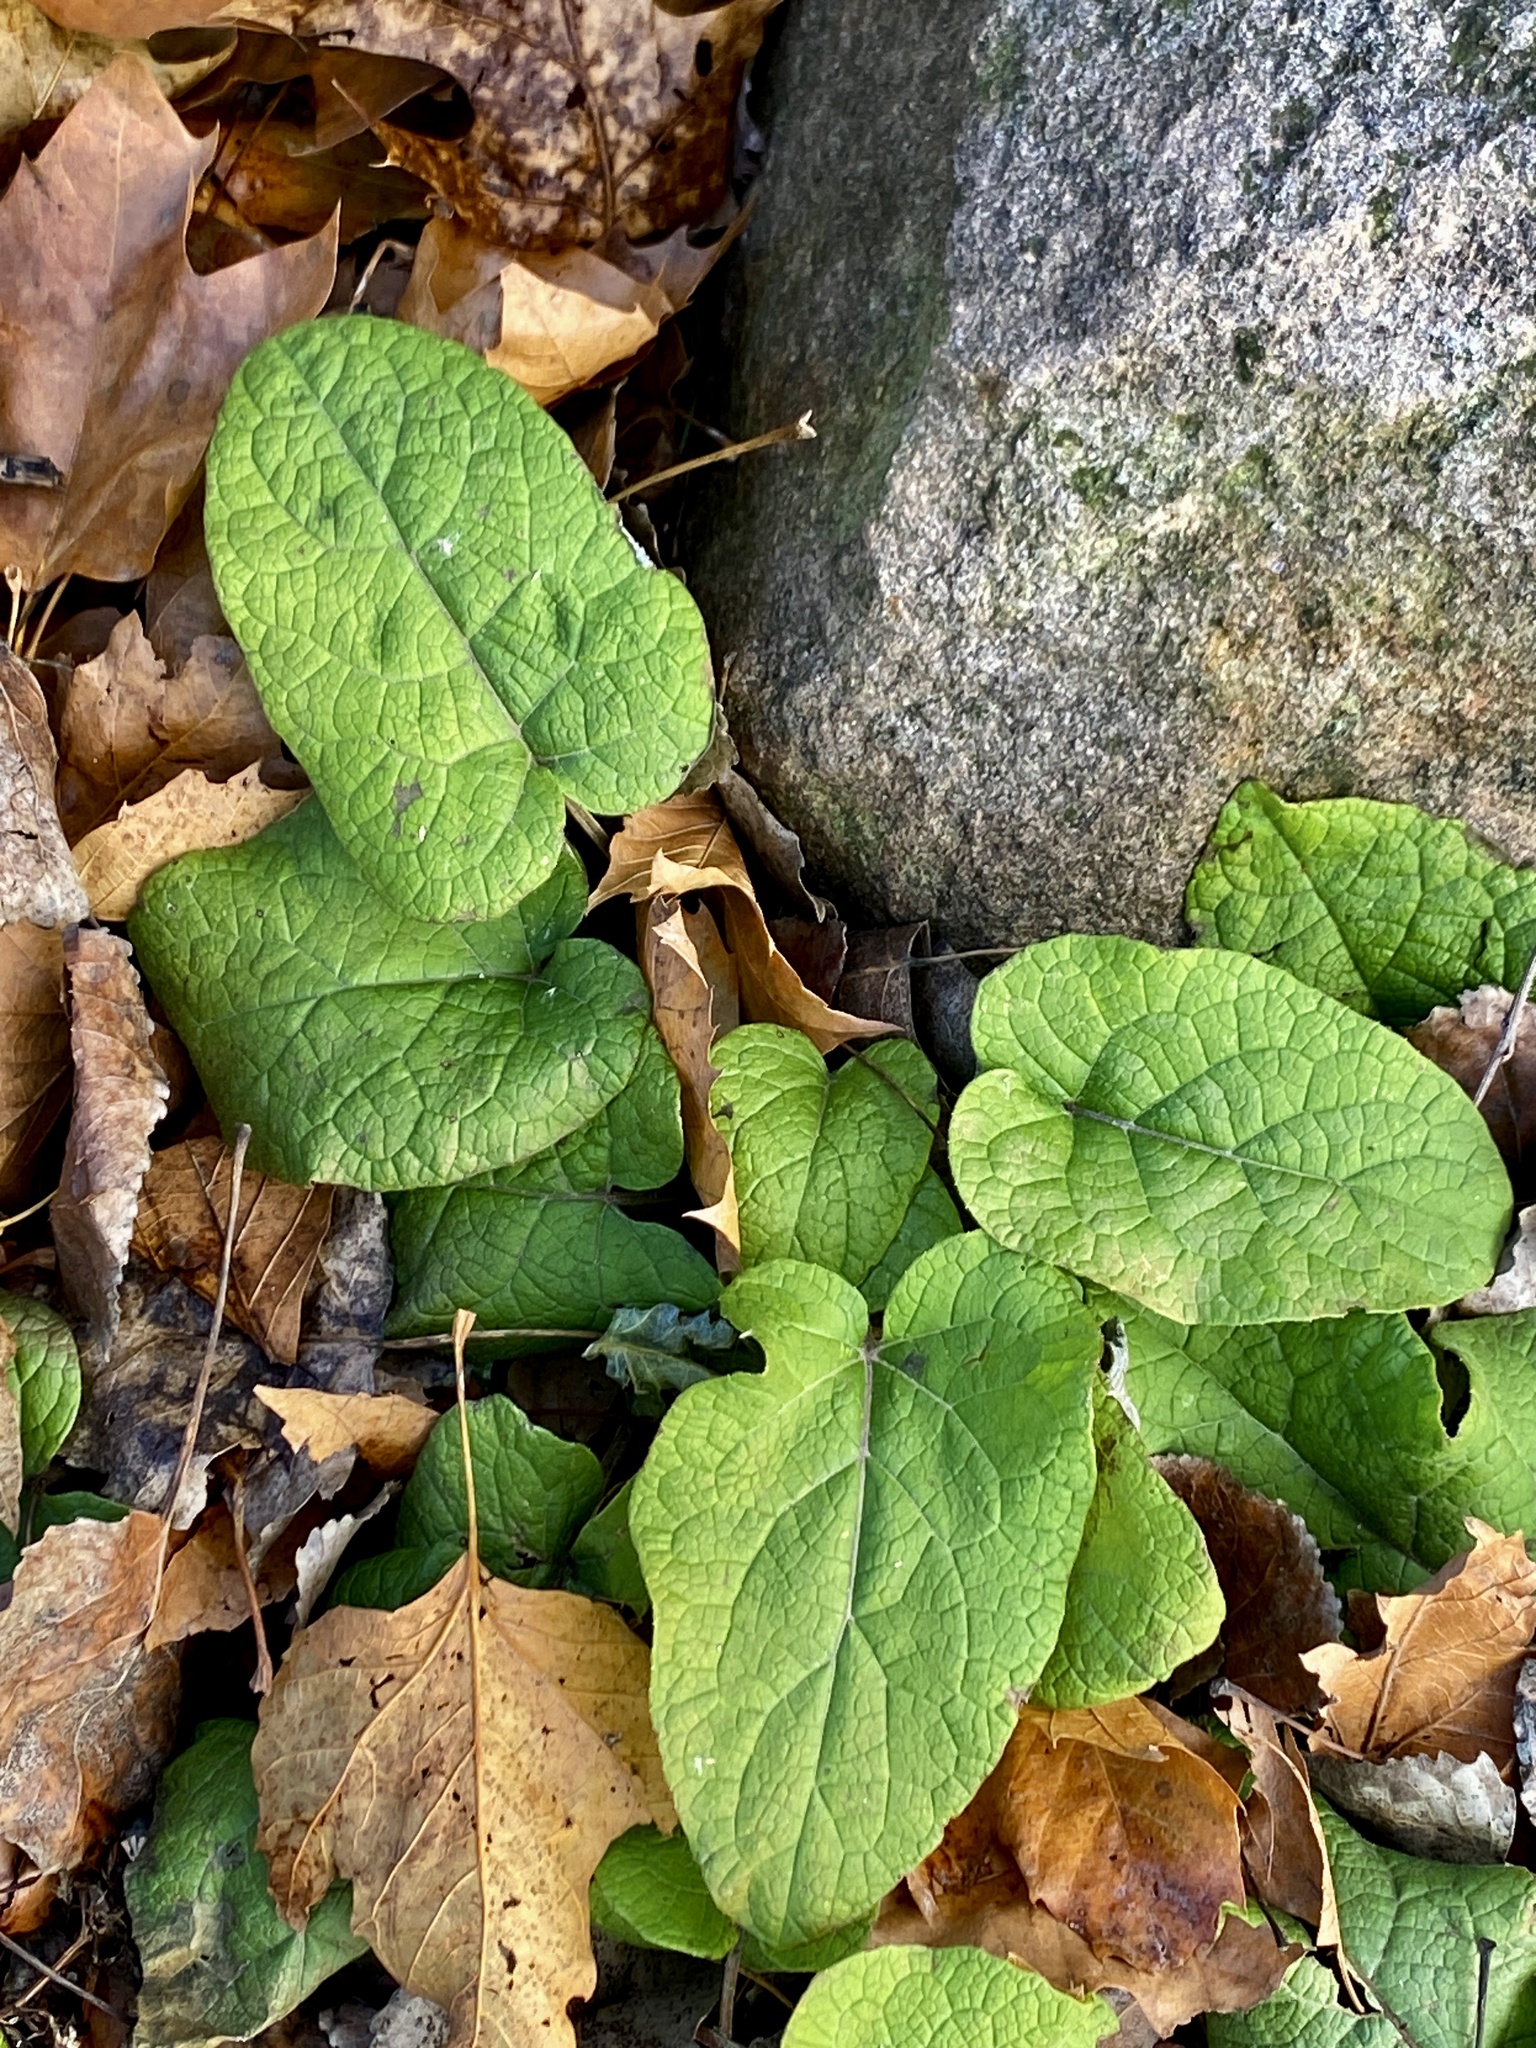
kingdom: Plantae
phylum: Tracheophyta
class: Magnoliopsida
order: Asterales
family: Asteraceae
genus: Arctium
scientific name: Arctium minus
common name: Lesser burdock
